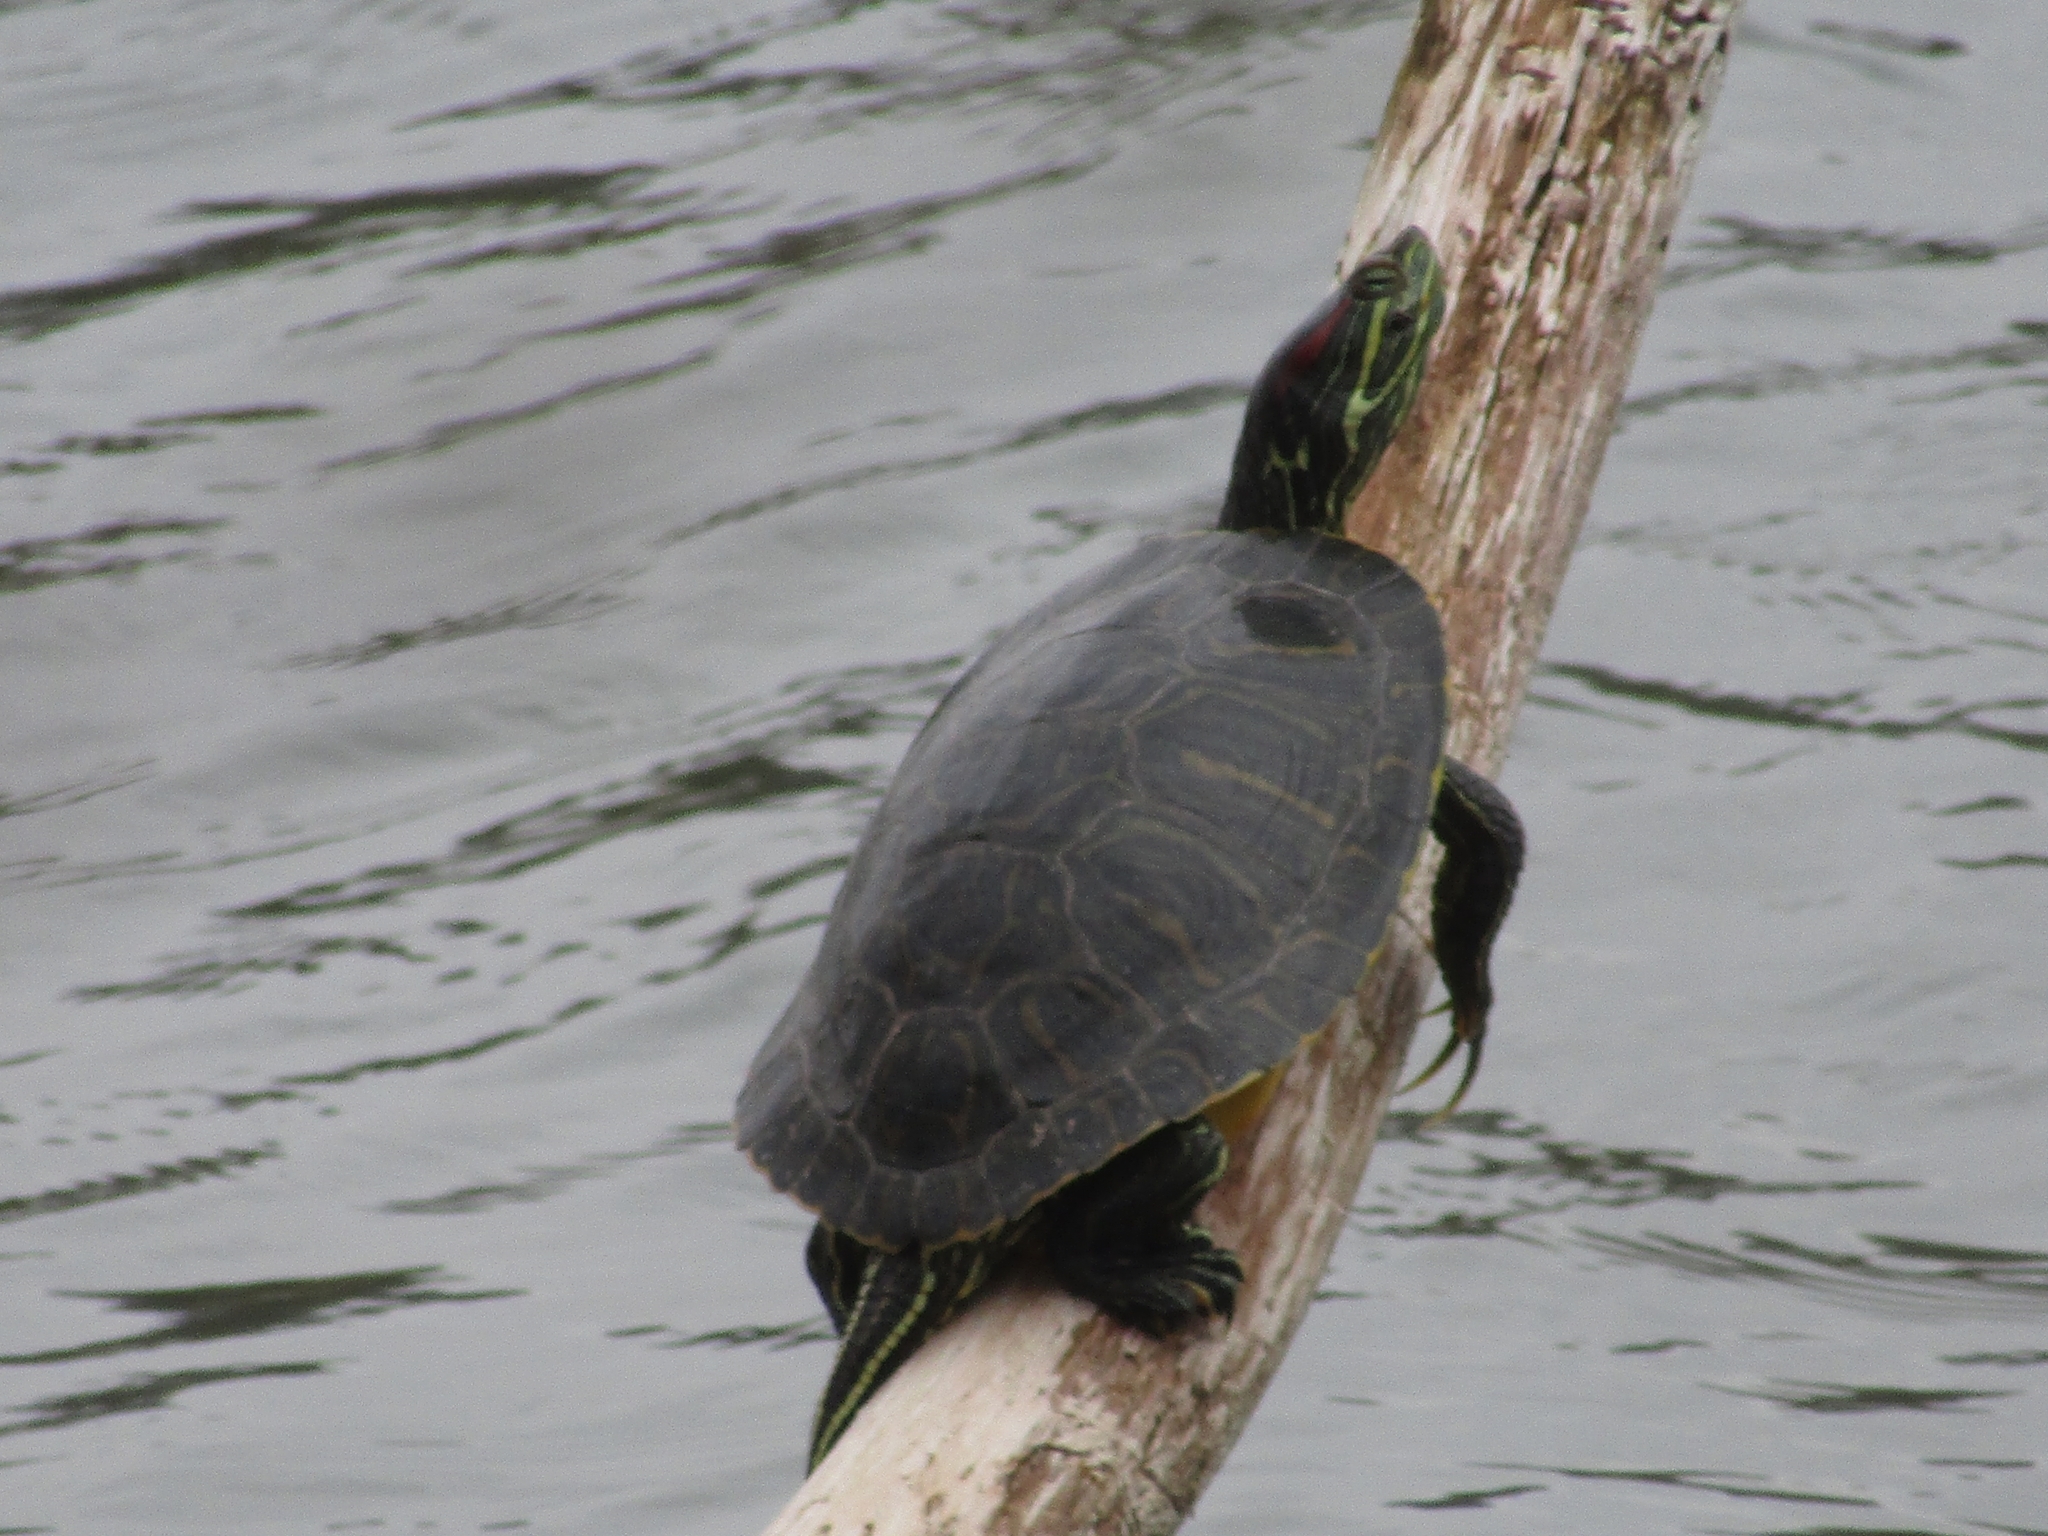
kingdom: Animalia
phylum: Chordata
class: Testudines
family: Emydidae
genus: Trachemys
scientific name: Trachemys scripta
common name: Slider
